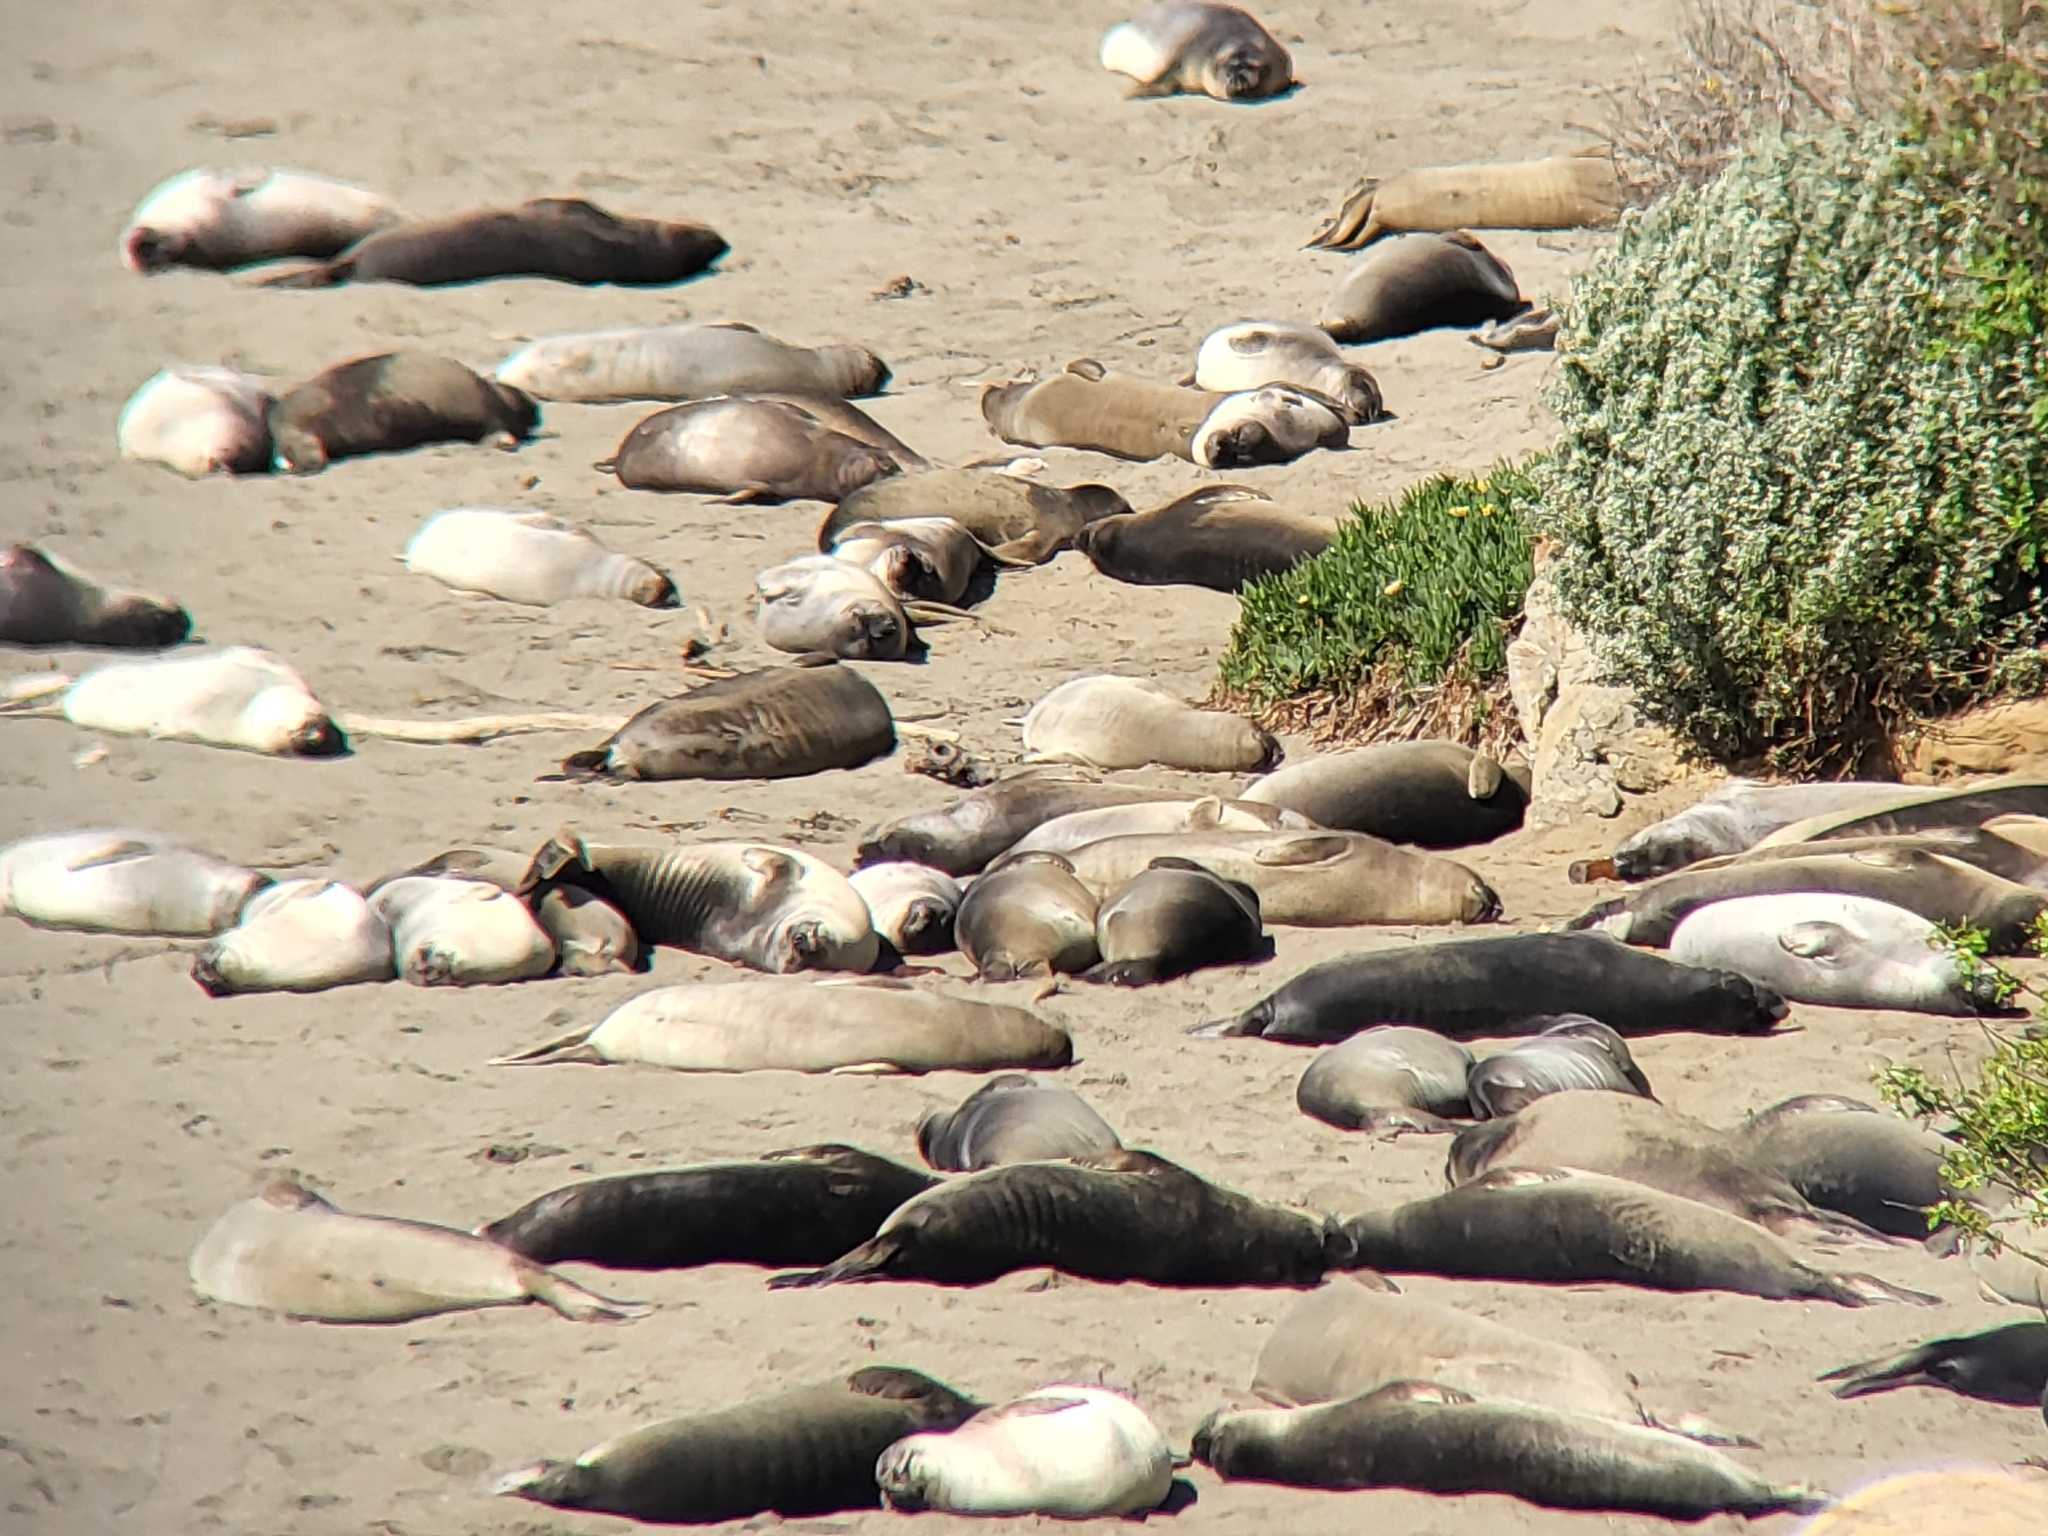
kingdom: Animalia
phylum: Chordata
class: Mammalia
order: Carnivora
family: Phocidae
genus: Mirounga
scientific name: Mirounga angustirostris
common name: Northern elephant seal
